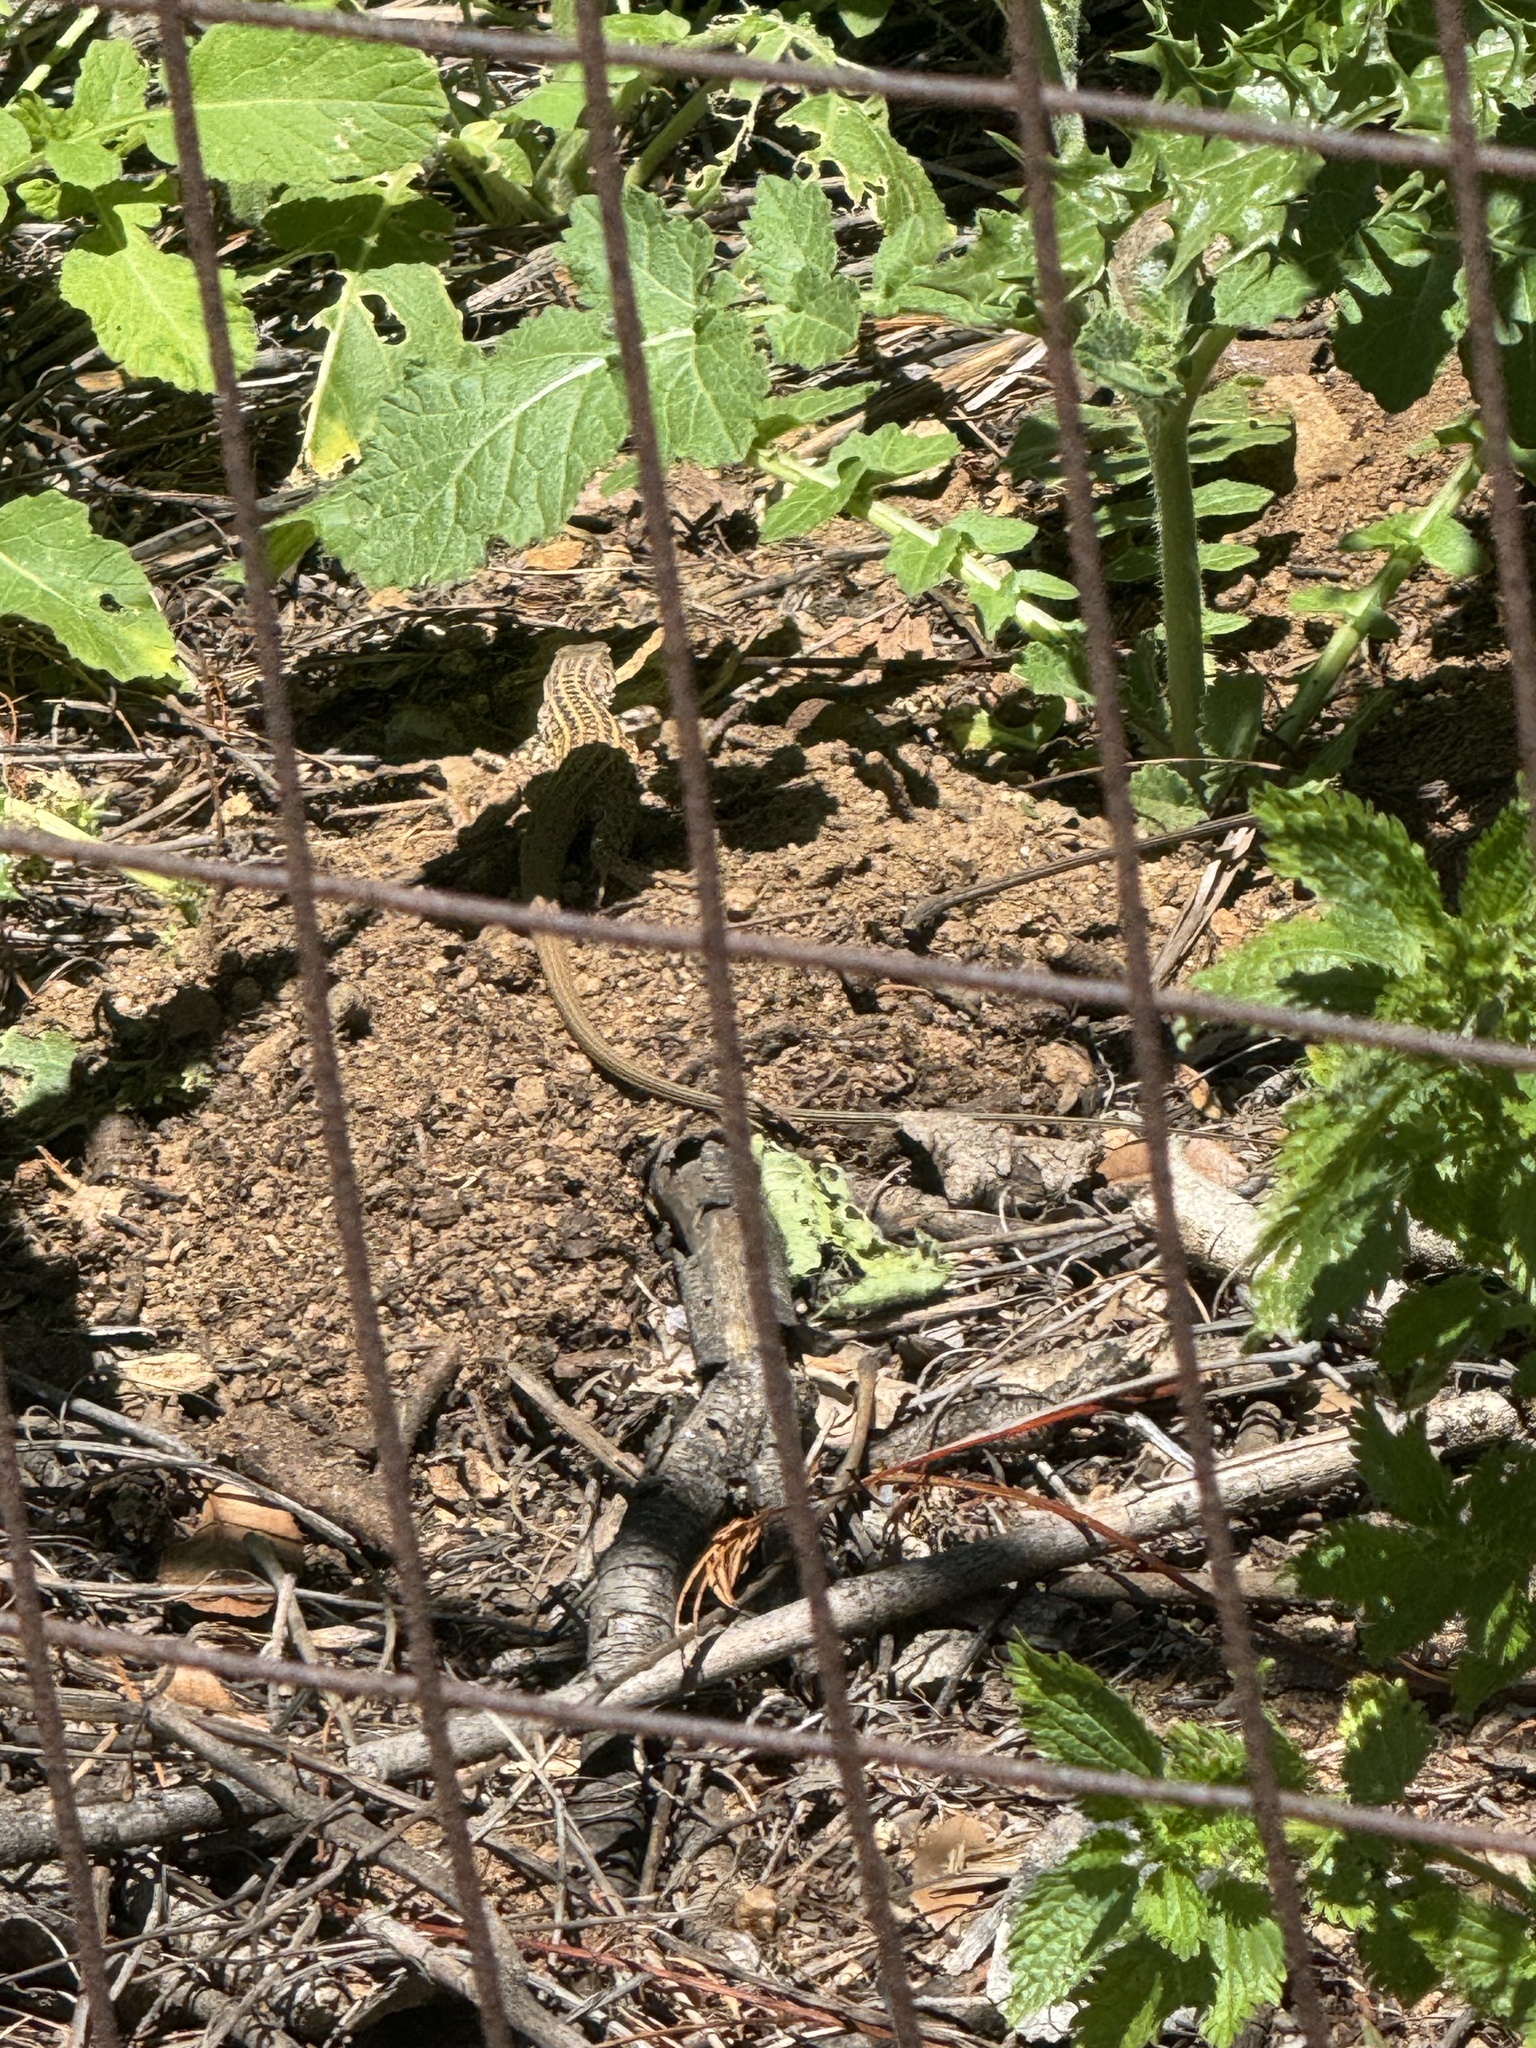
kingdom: Animalia
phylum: Chordata
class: Squamata
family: Teiidae
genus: Aspidoscelis
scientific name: Aspidoscelis tigris
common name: Tiger whiptail
